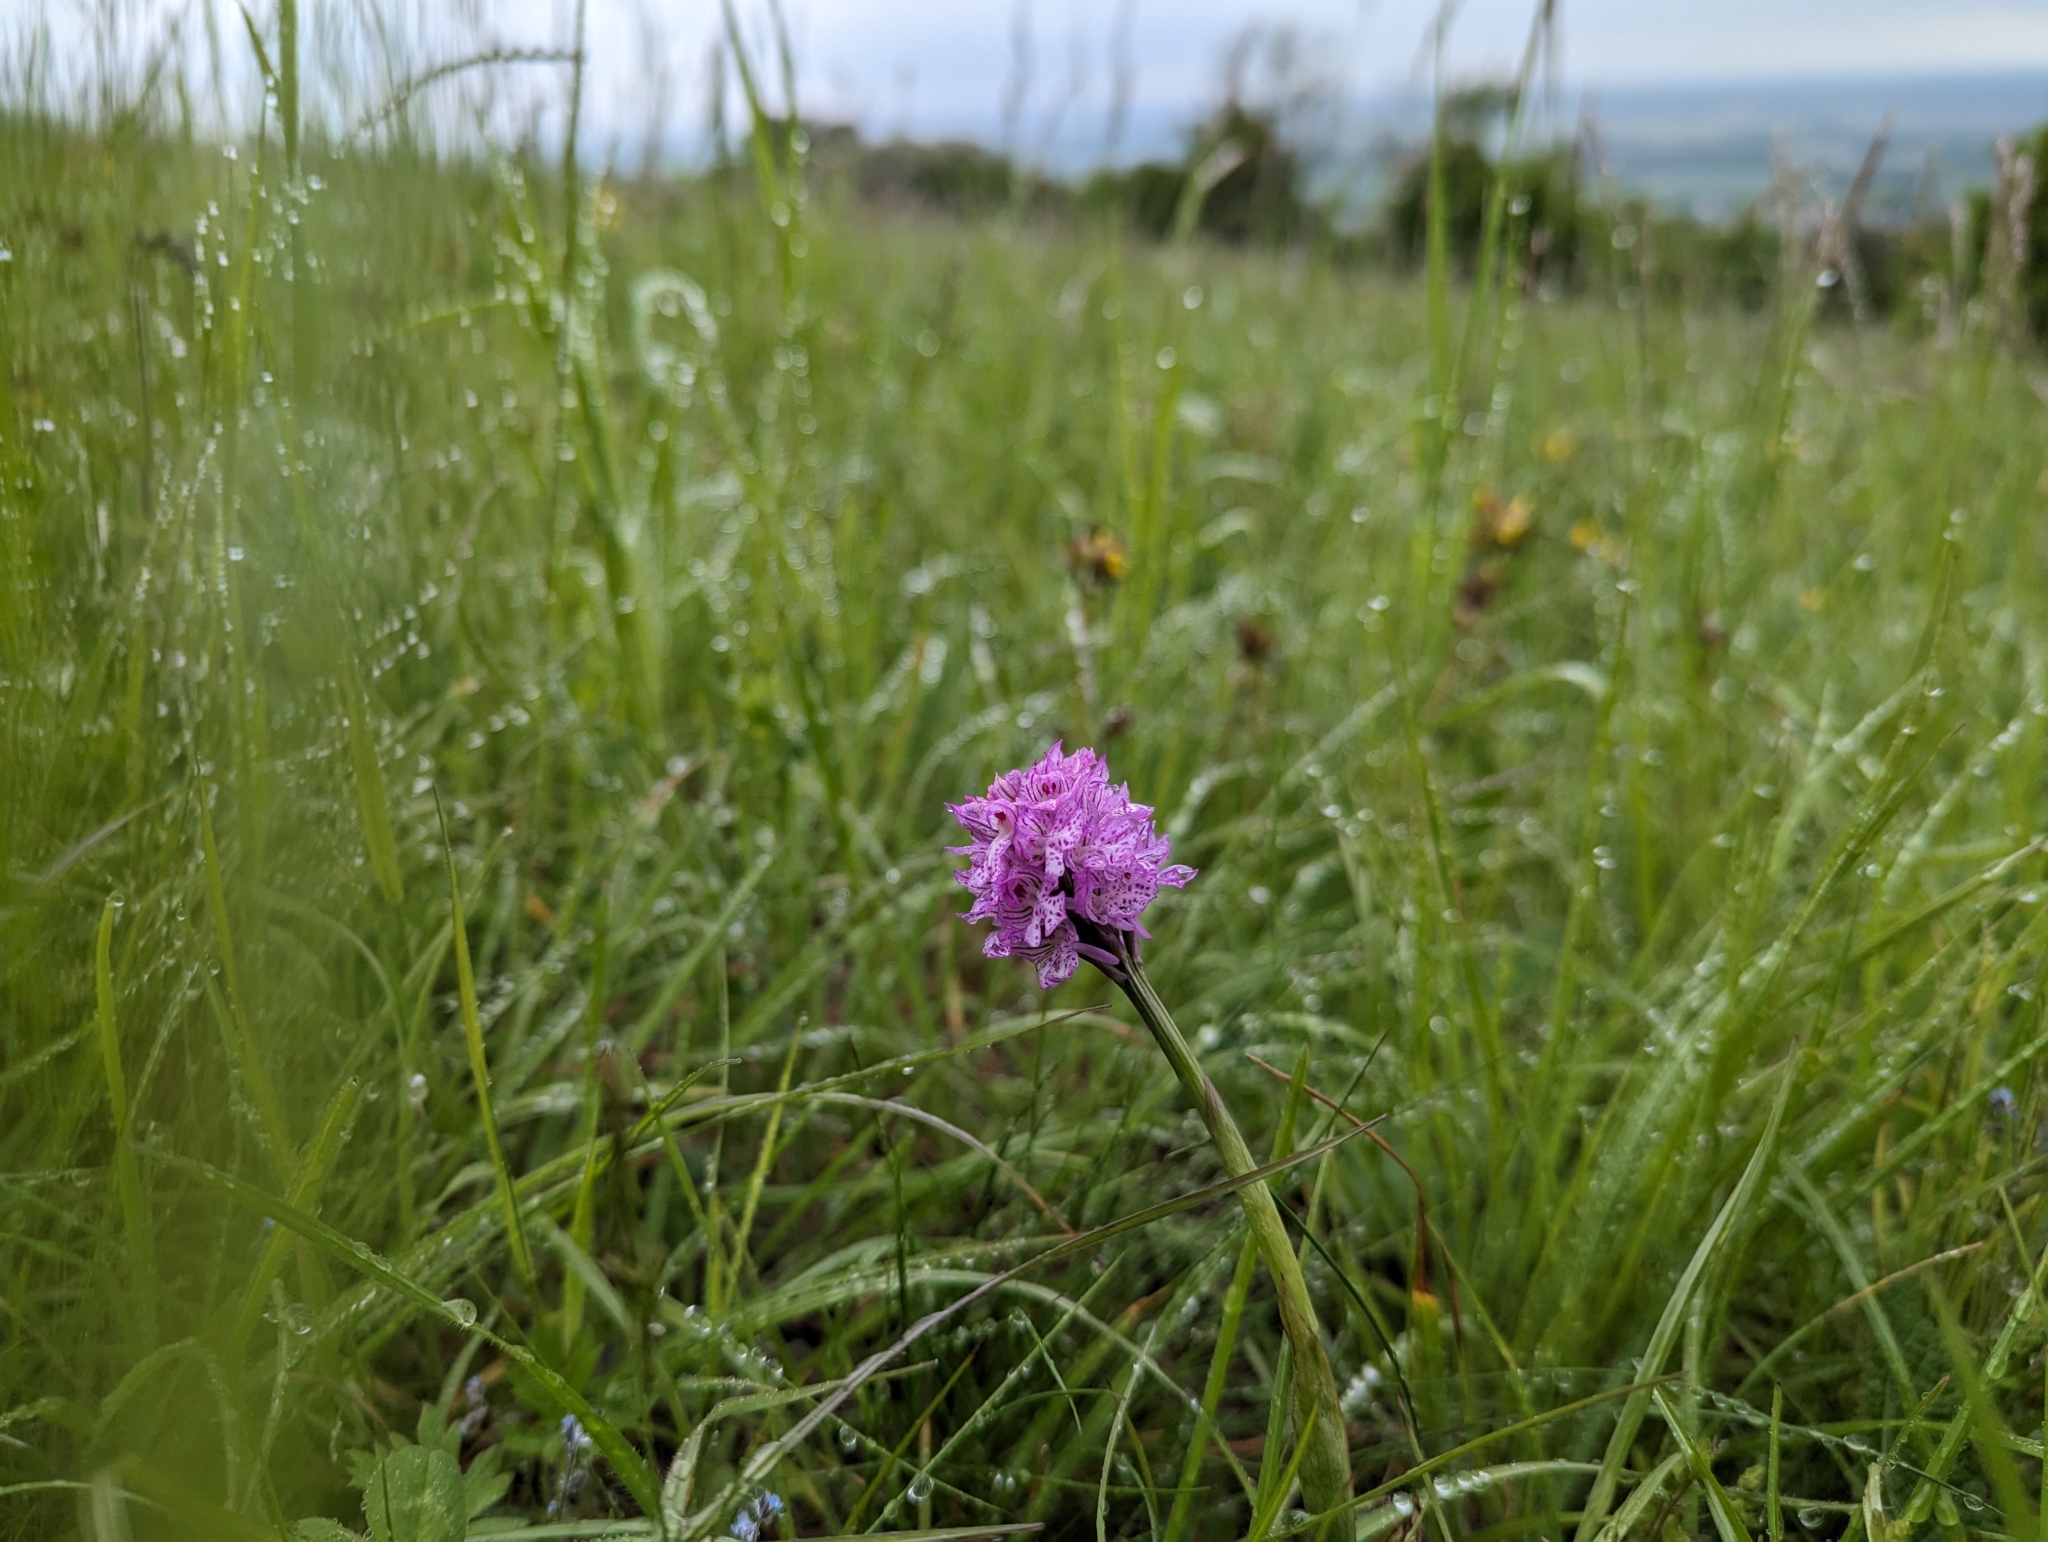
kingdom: Plantae
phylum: Tracheophyta
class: Liliopsida
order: Asparagales
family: Orchidaceae
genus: Neotinea
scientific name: Neotinea tridentata
